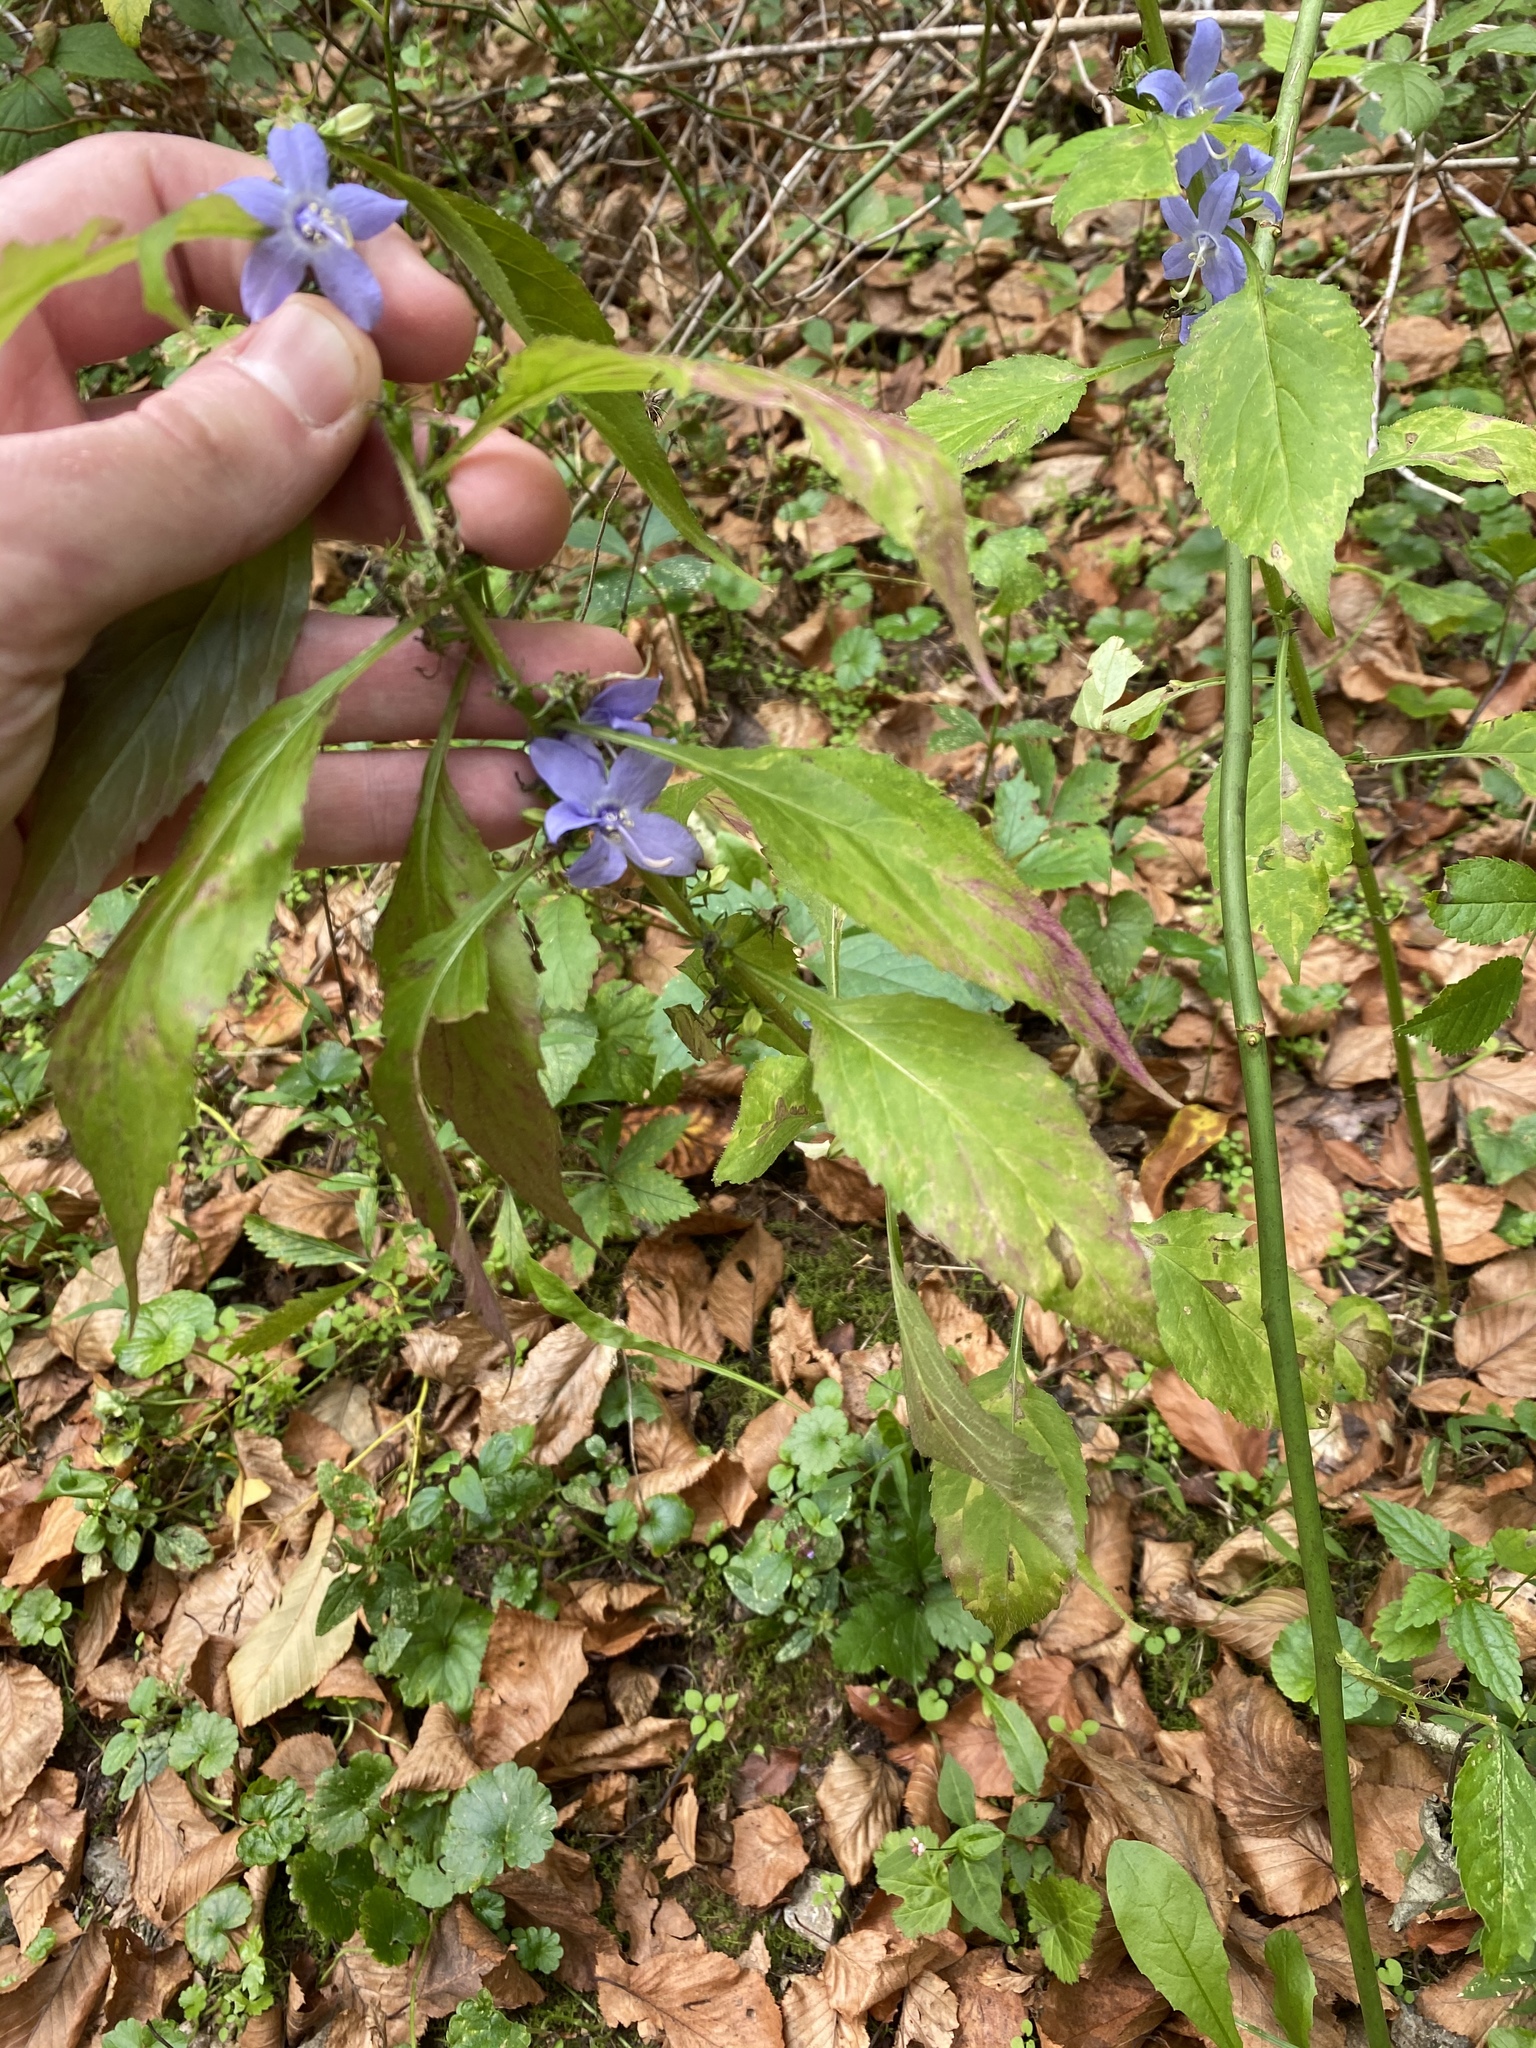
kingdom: Plantae
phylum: Tracheophyta
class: Magnoliopsida
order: Asterales
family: Campanulaceae
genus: Campanulastrum
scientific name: Campanulastrum americanum
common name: American bellflower
